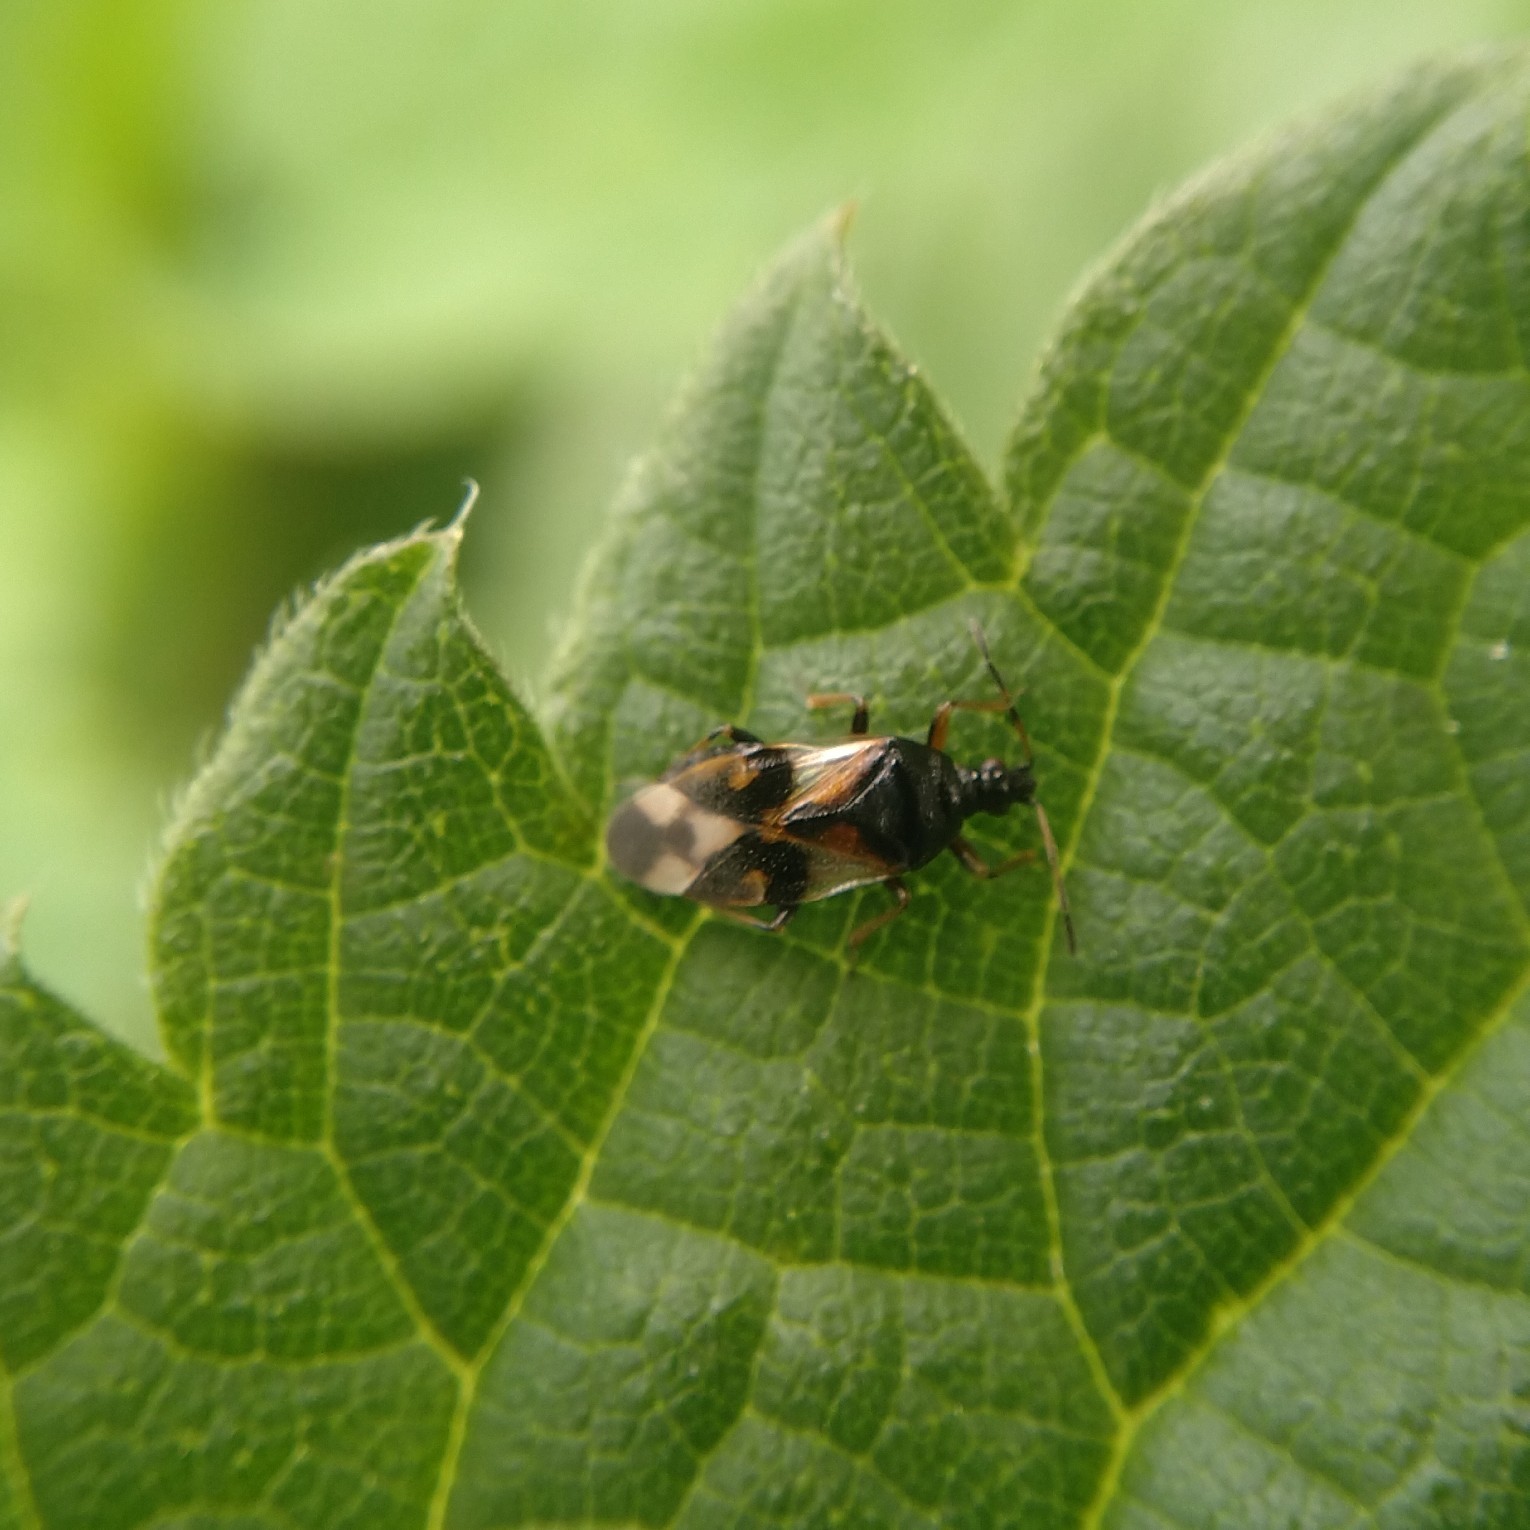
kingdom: Animalia
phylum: Arthropoda
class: Insecta
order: Hemiptera
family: Anthocoridae
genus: Anthocoris
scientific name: Anthocoris nemorum
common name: Minute pirate bug
